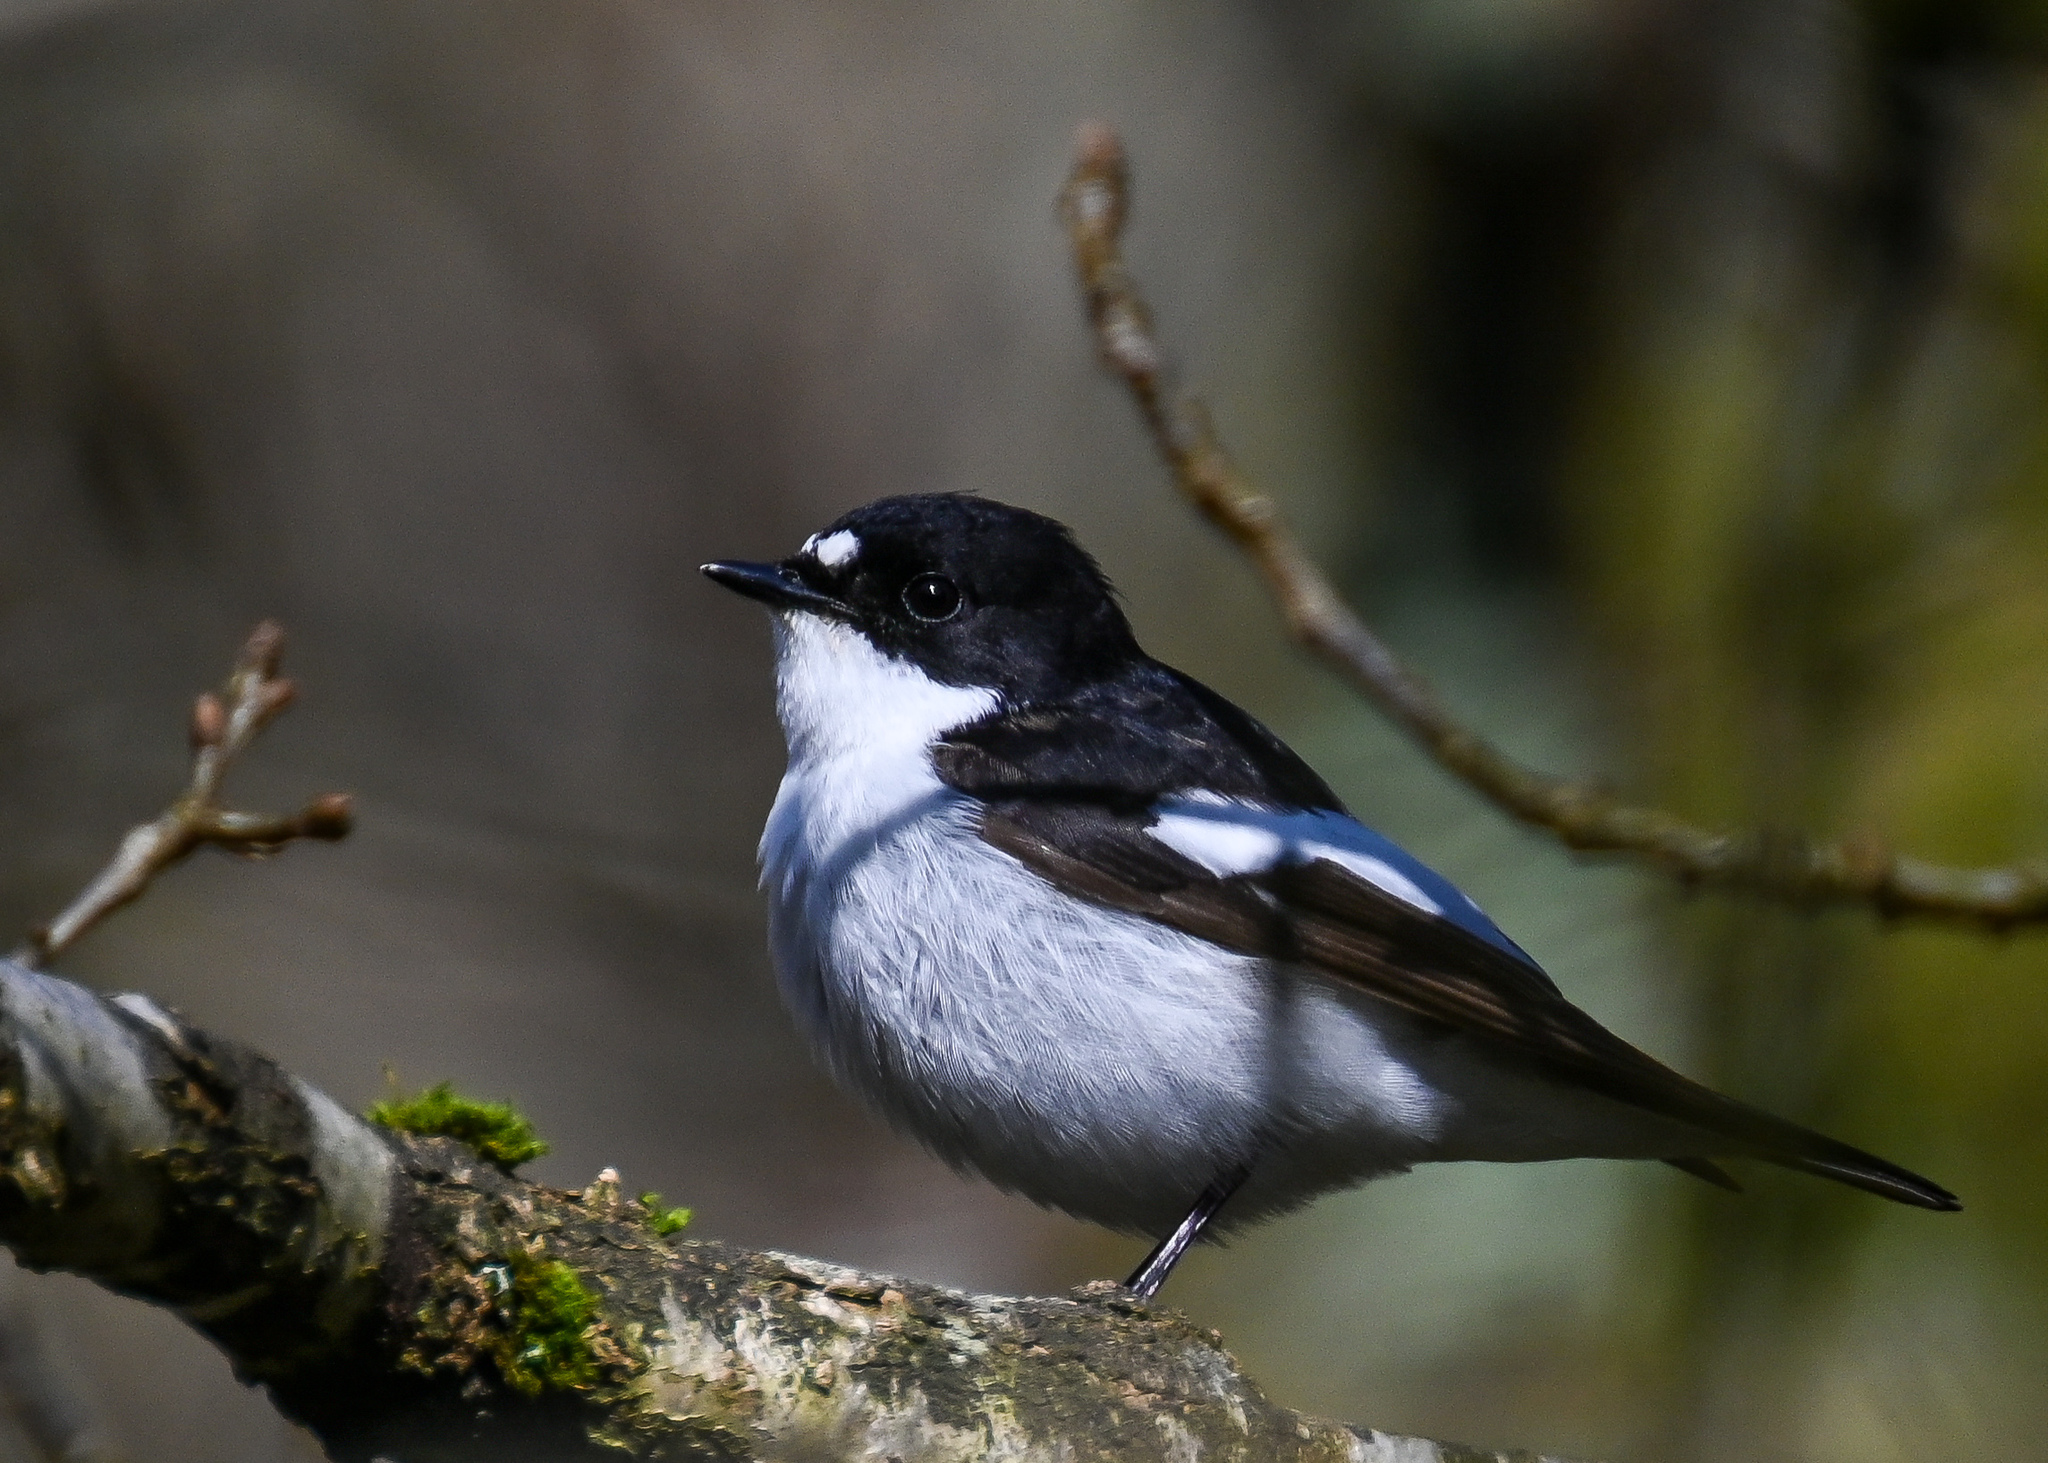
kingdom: Animalia
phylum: Chordata
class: Aves
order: Passeriformes
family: Muscicapidae
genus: Ficedula
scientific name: Ficedula hypoleuca
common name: European pied flycatcher
